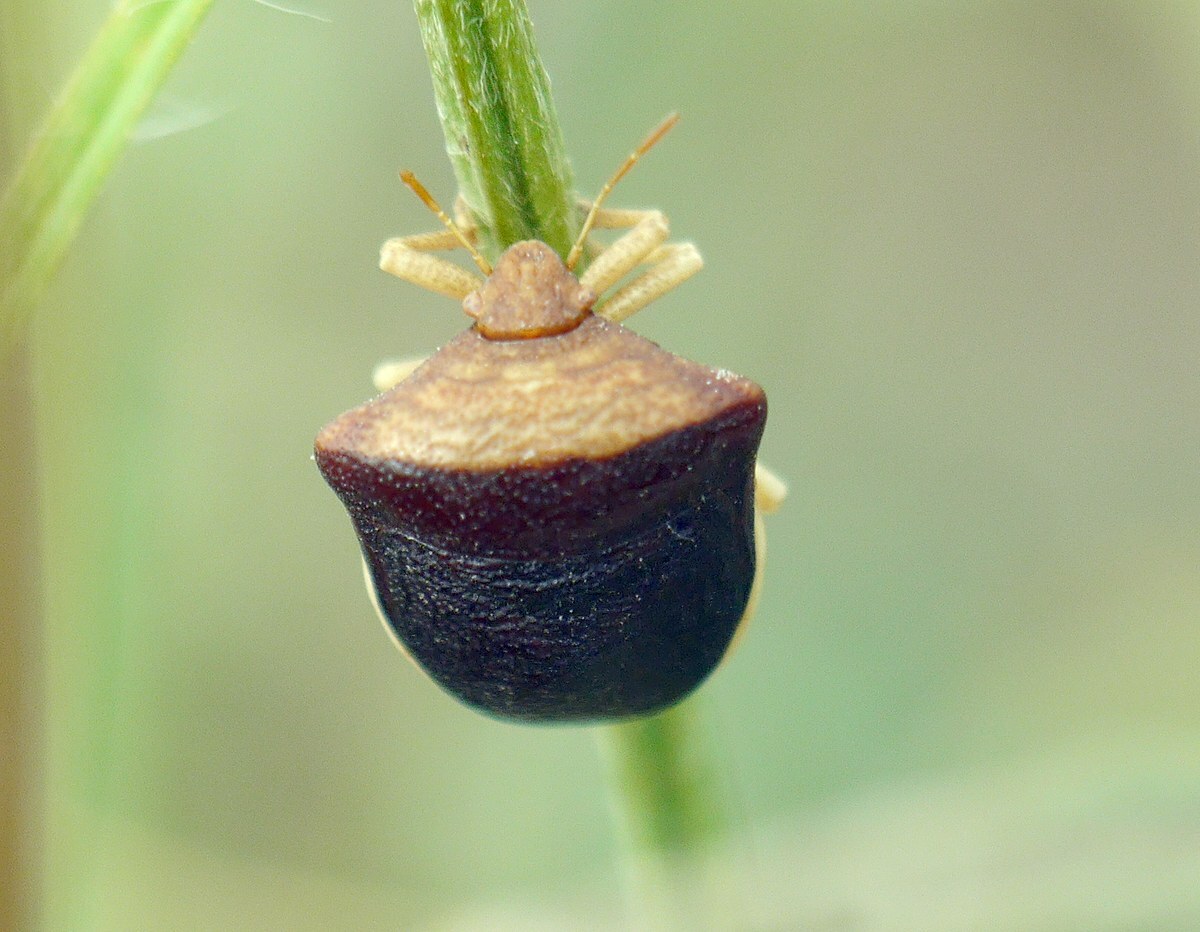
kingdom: Animalia
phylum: Arthropoda
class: Insecta
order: Hemiptera
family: Pentatomidae
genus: Ventocoris
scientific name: Ventocoris rusticus
